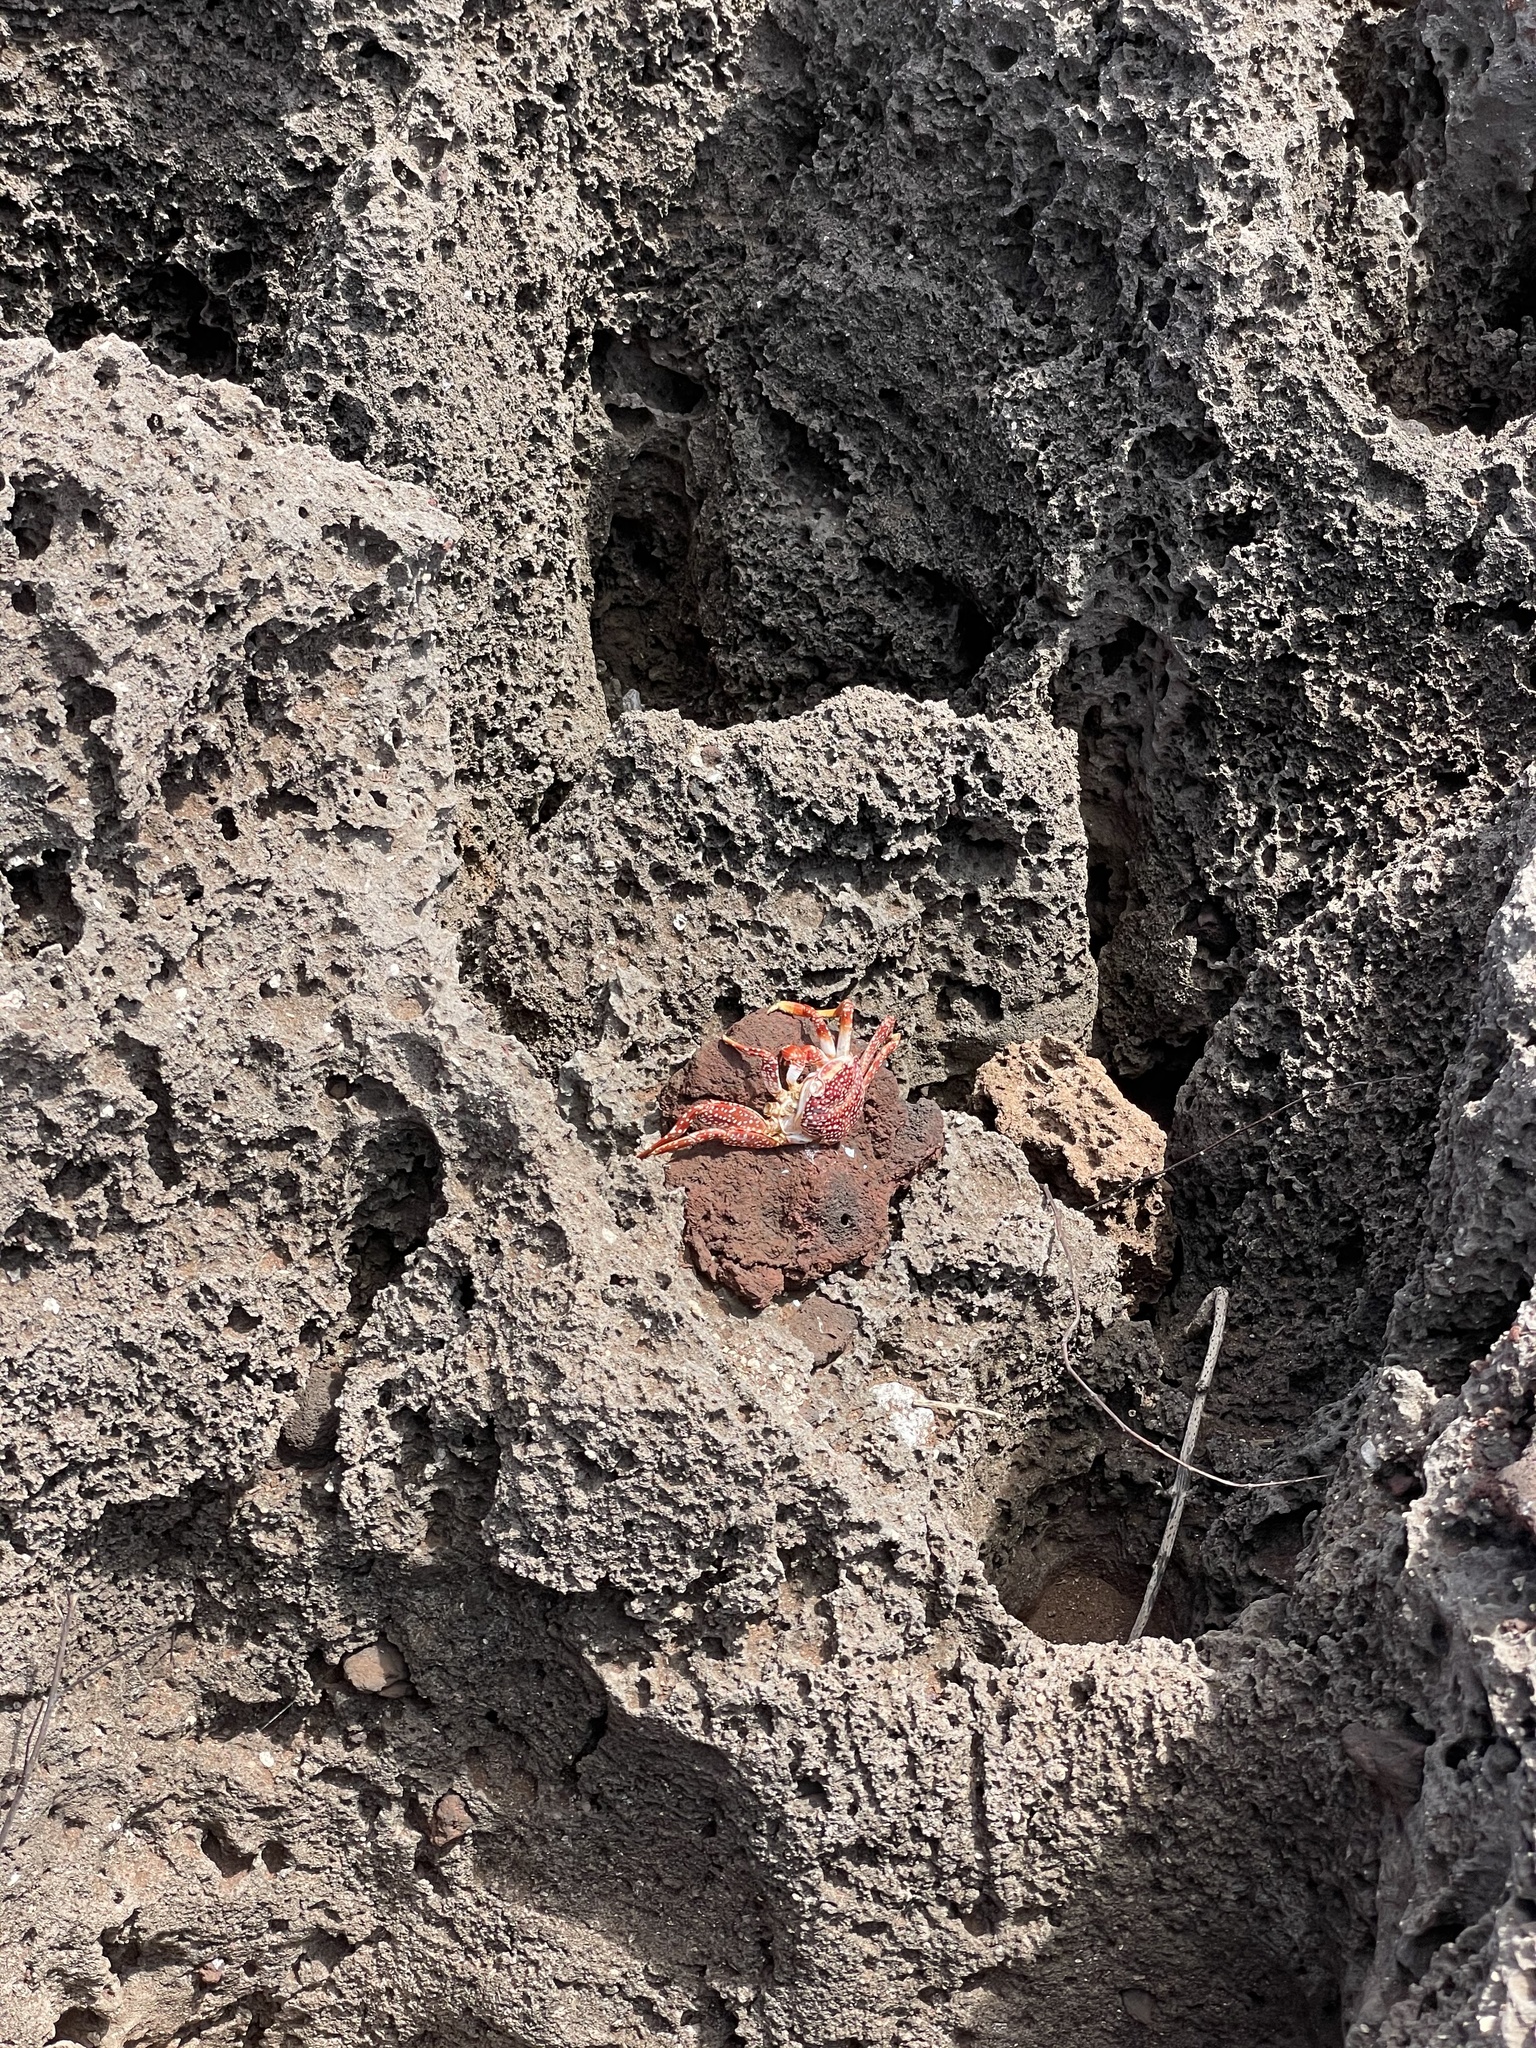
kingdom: Animalia
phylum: Arthropoda
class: Malacostraca
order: Decapoda
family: Grapsidae
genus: Grapsus
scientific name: Grapsus grapsus
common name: Sally lightfoot
